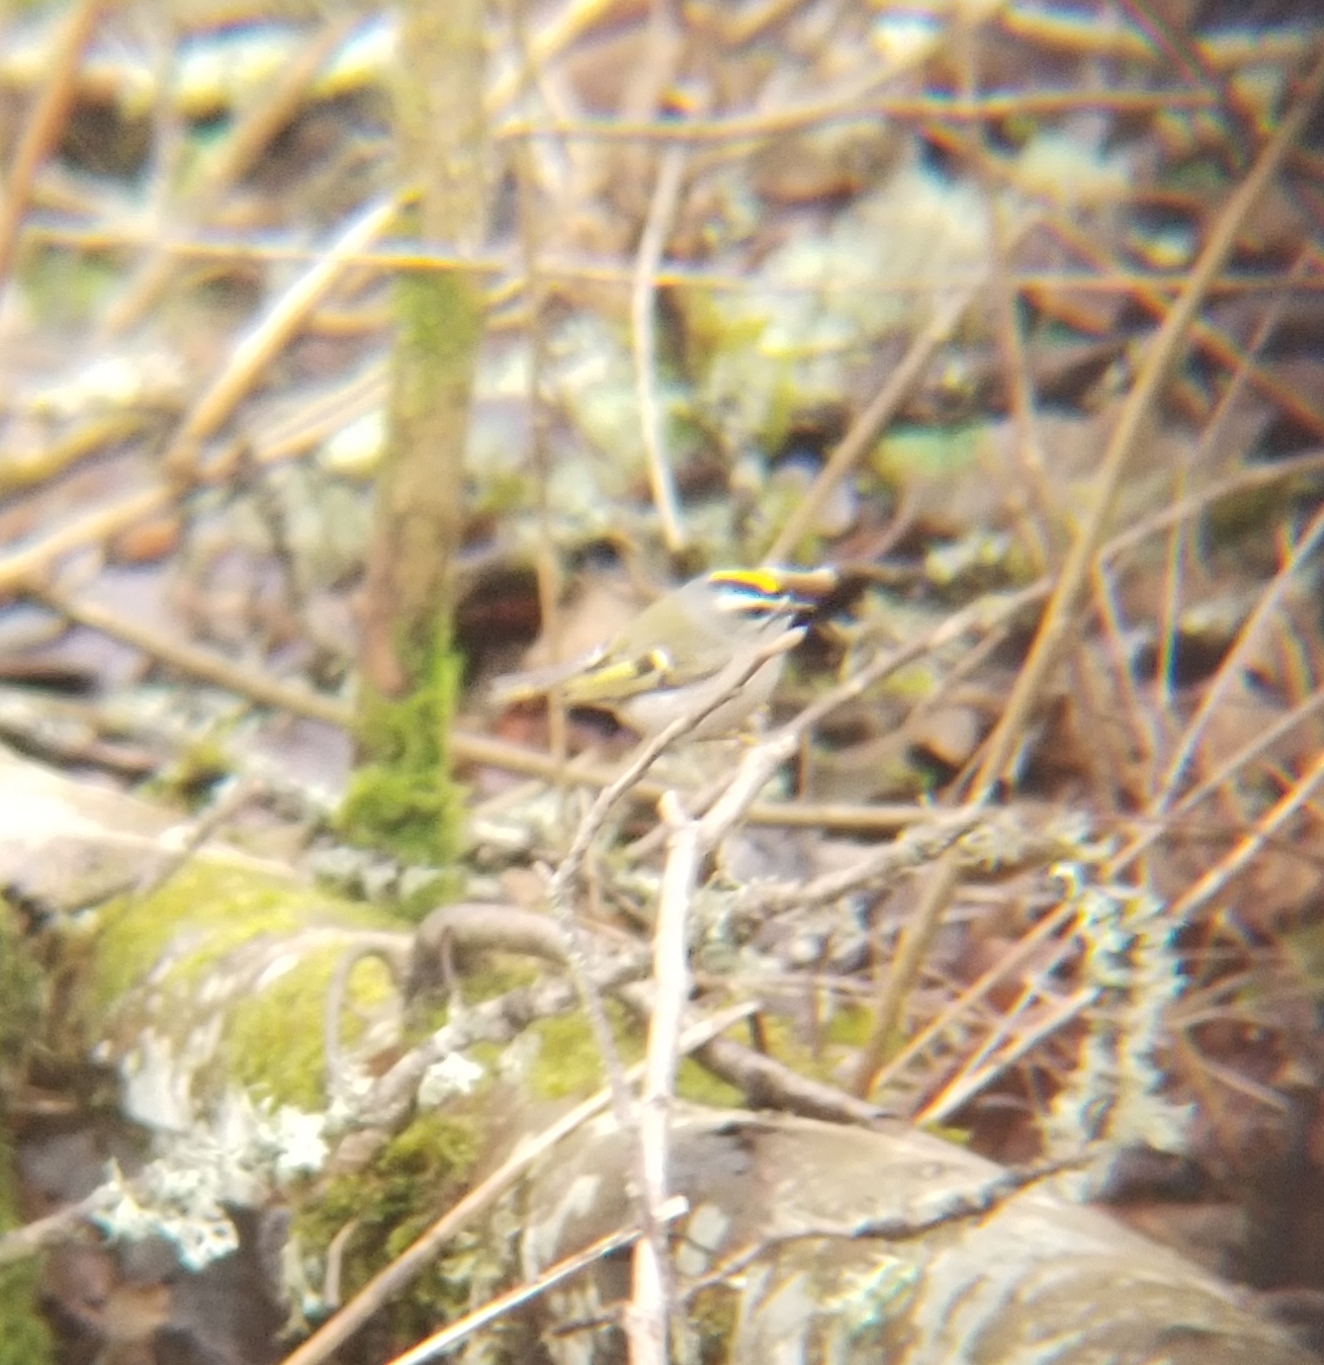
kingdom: Animalia
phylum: Chordata
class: Aves
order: Passeriformes
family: Regulidae
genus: Regulus
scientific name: Regulus satrapa
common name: Golden-crowned kinglet
